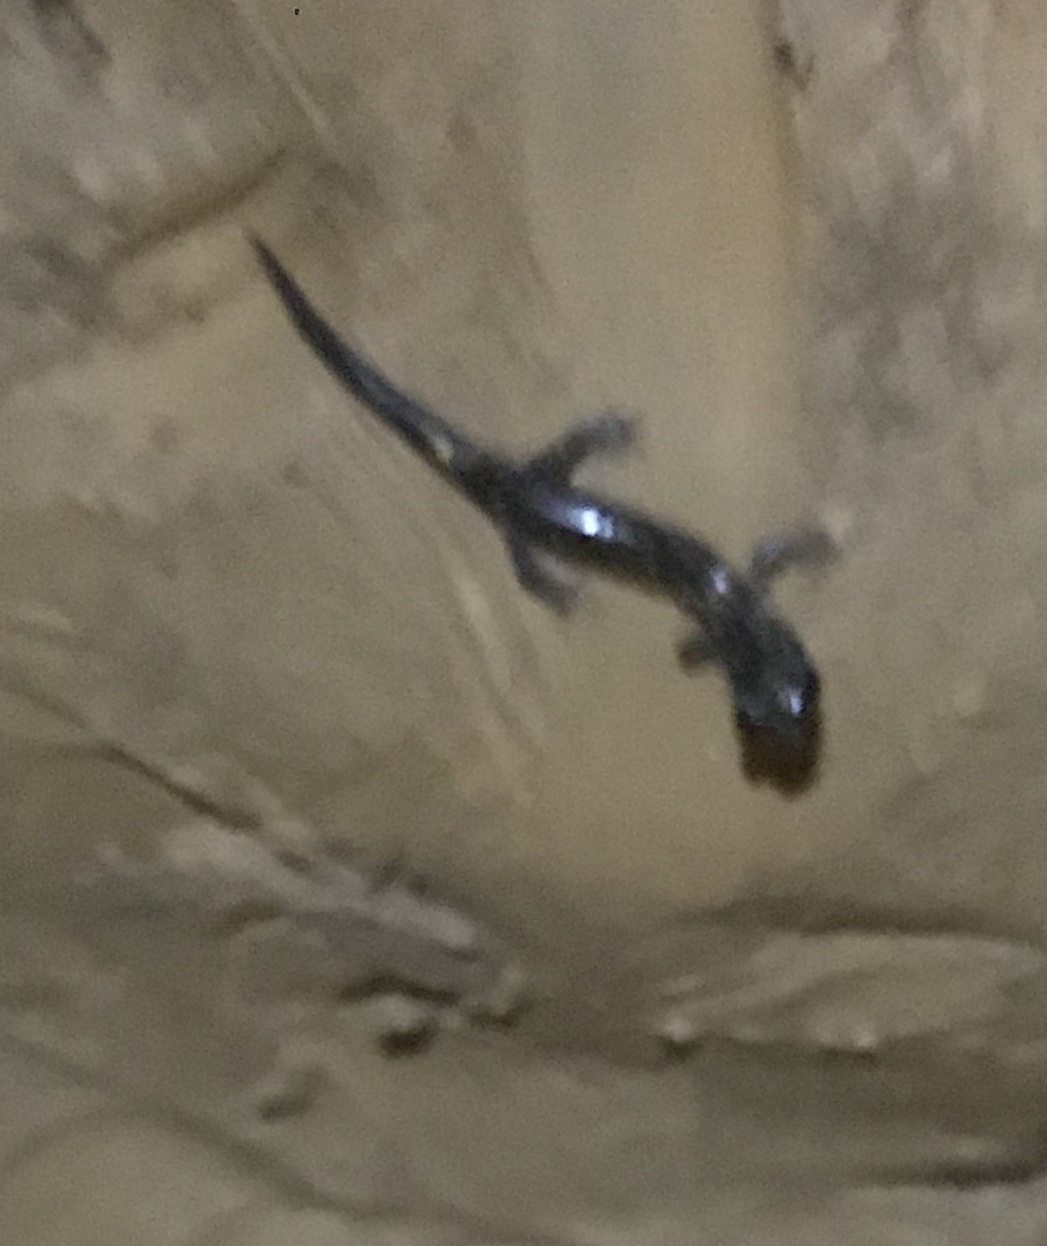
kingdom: Animalia
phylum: Chordata
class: Amphibia
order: Caudata
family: Plethodontidae
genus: Plethodon
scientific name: Plethodon glutinosus
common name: Northern slimy salamander
